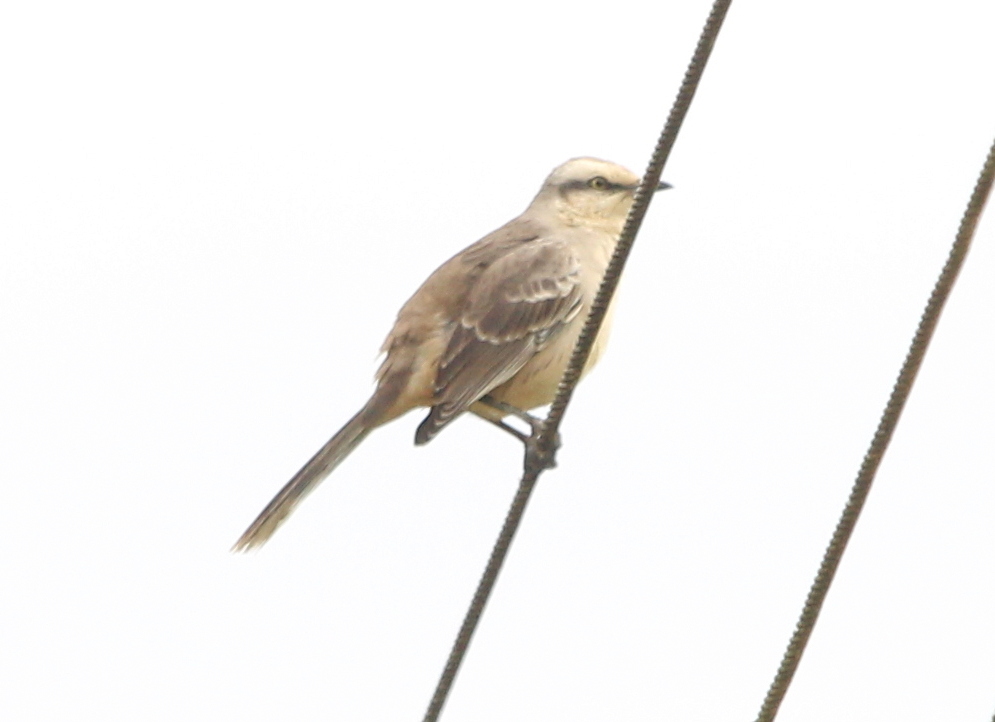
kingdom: Animalia
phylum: Chordata
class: Aves
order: Passeriformes
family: Mimidae
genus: Mimus
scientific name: Mimus saturninus
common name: Chalk-browed mockingbird
